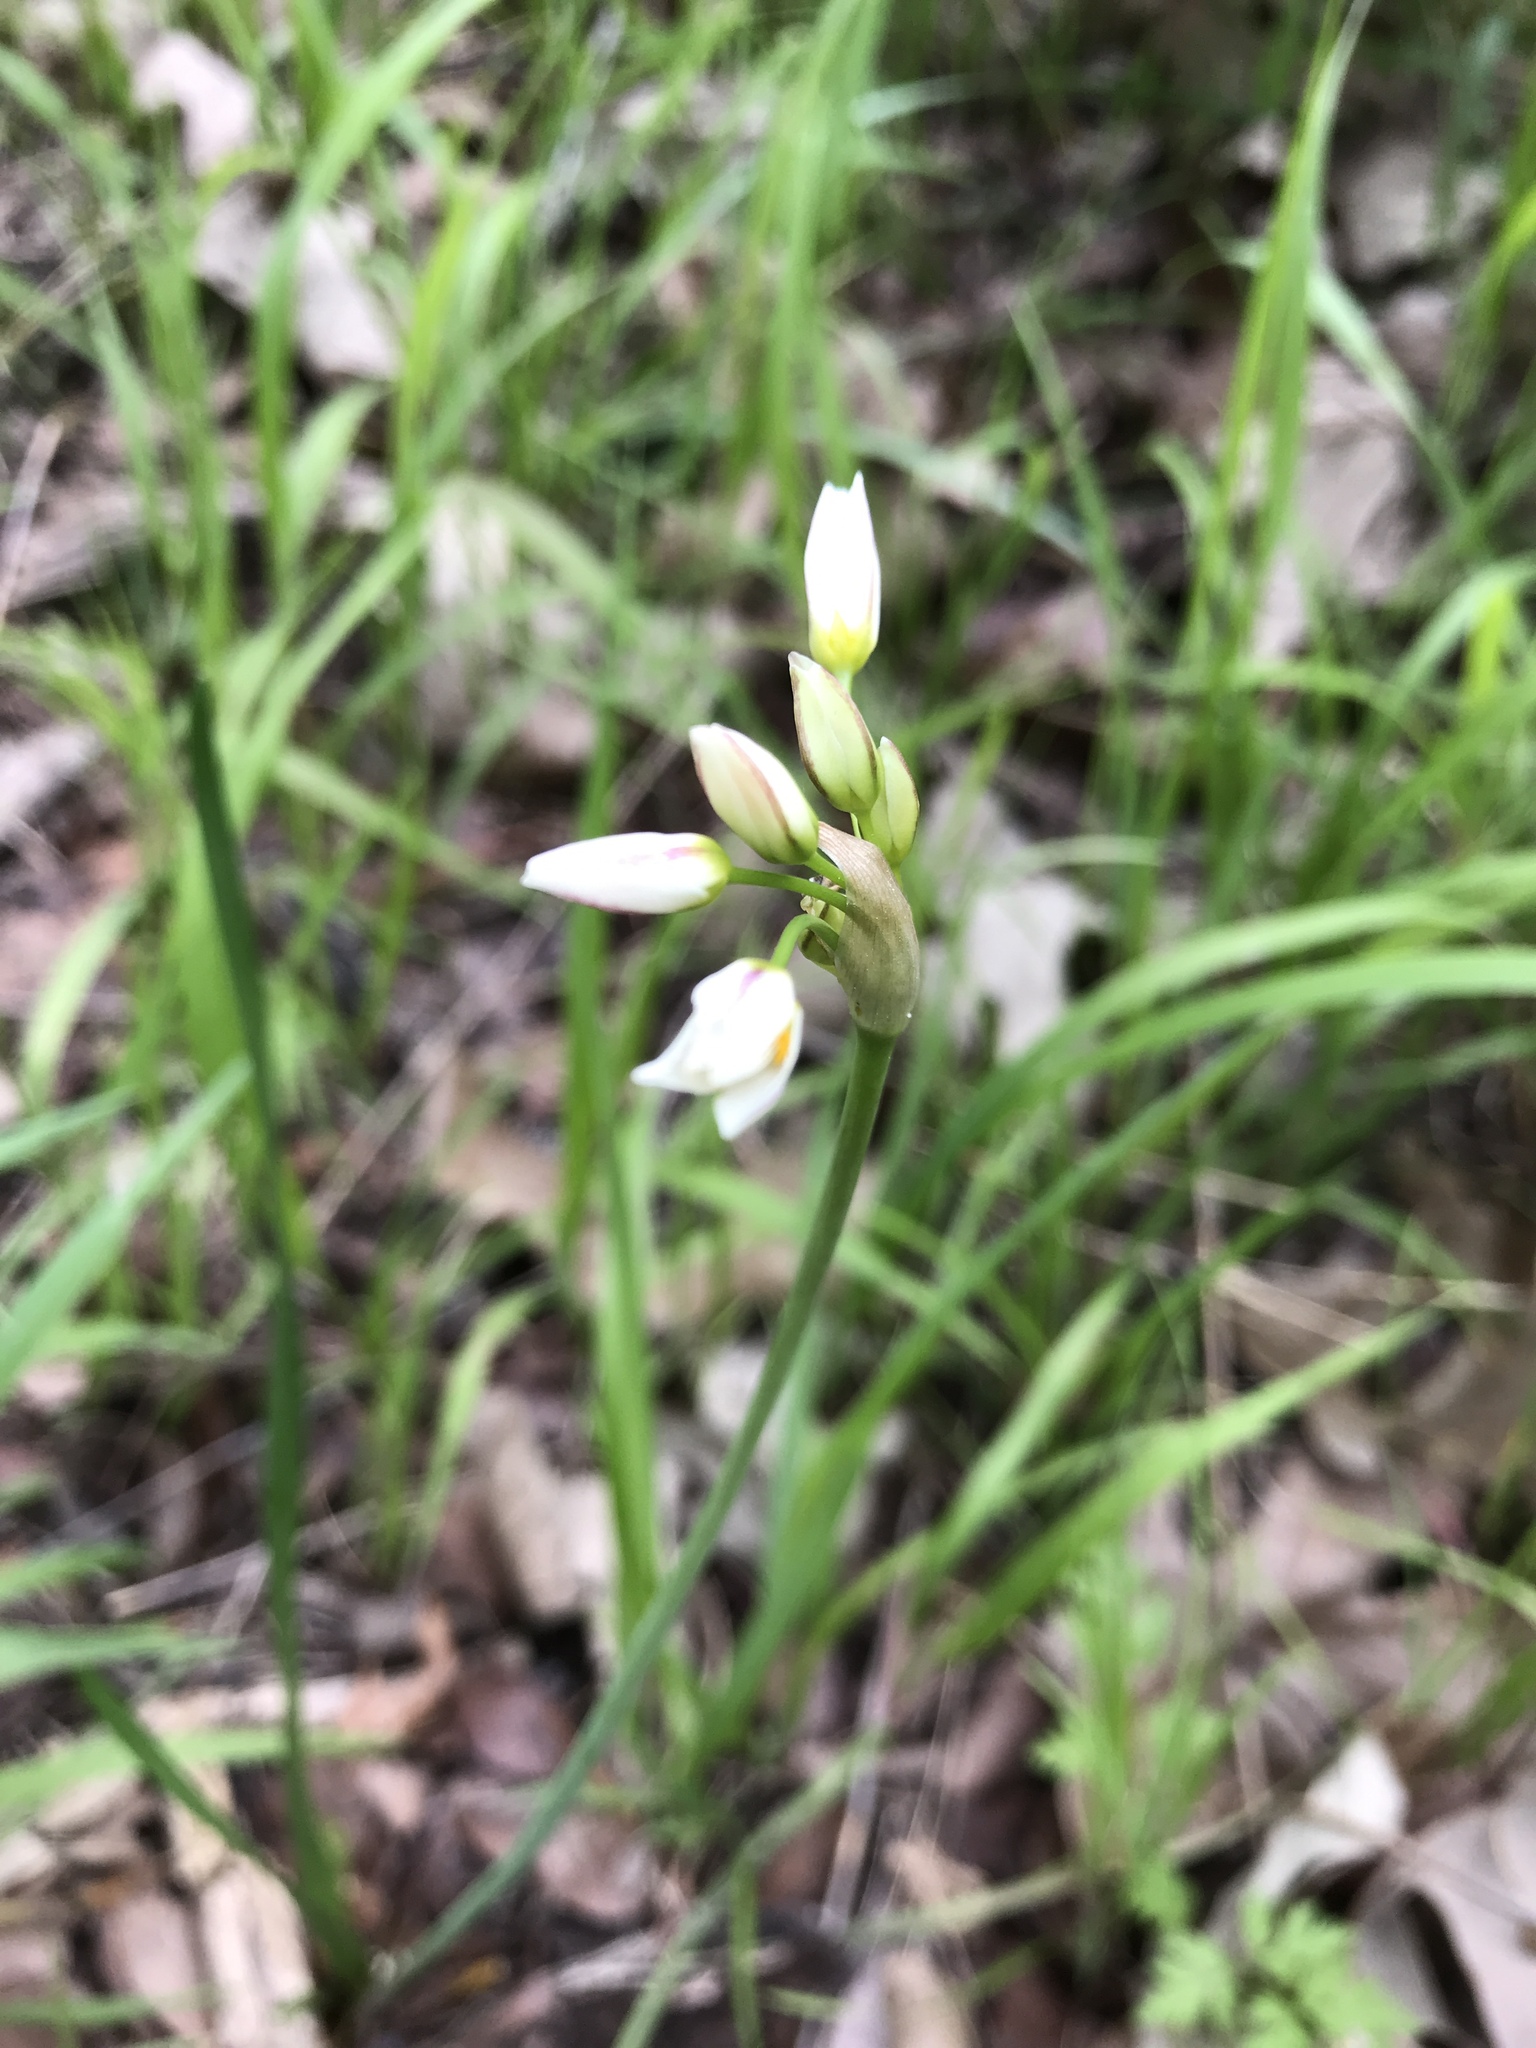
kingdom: Plantae
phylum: Tracheophyta
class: Liliopsida
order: Asparagales
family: Amaryllidaceae
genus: Nothoscordum
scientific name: Nothoscordum bivalve
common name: Crow-poison
